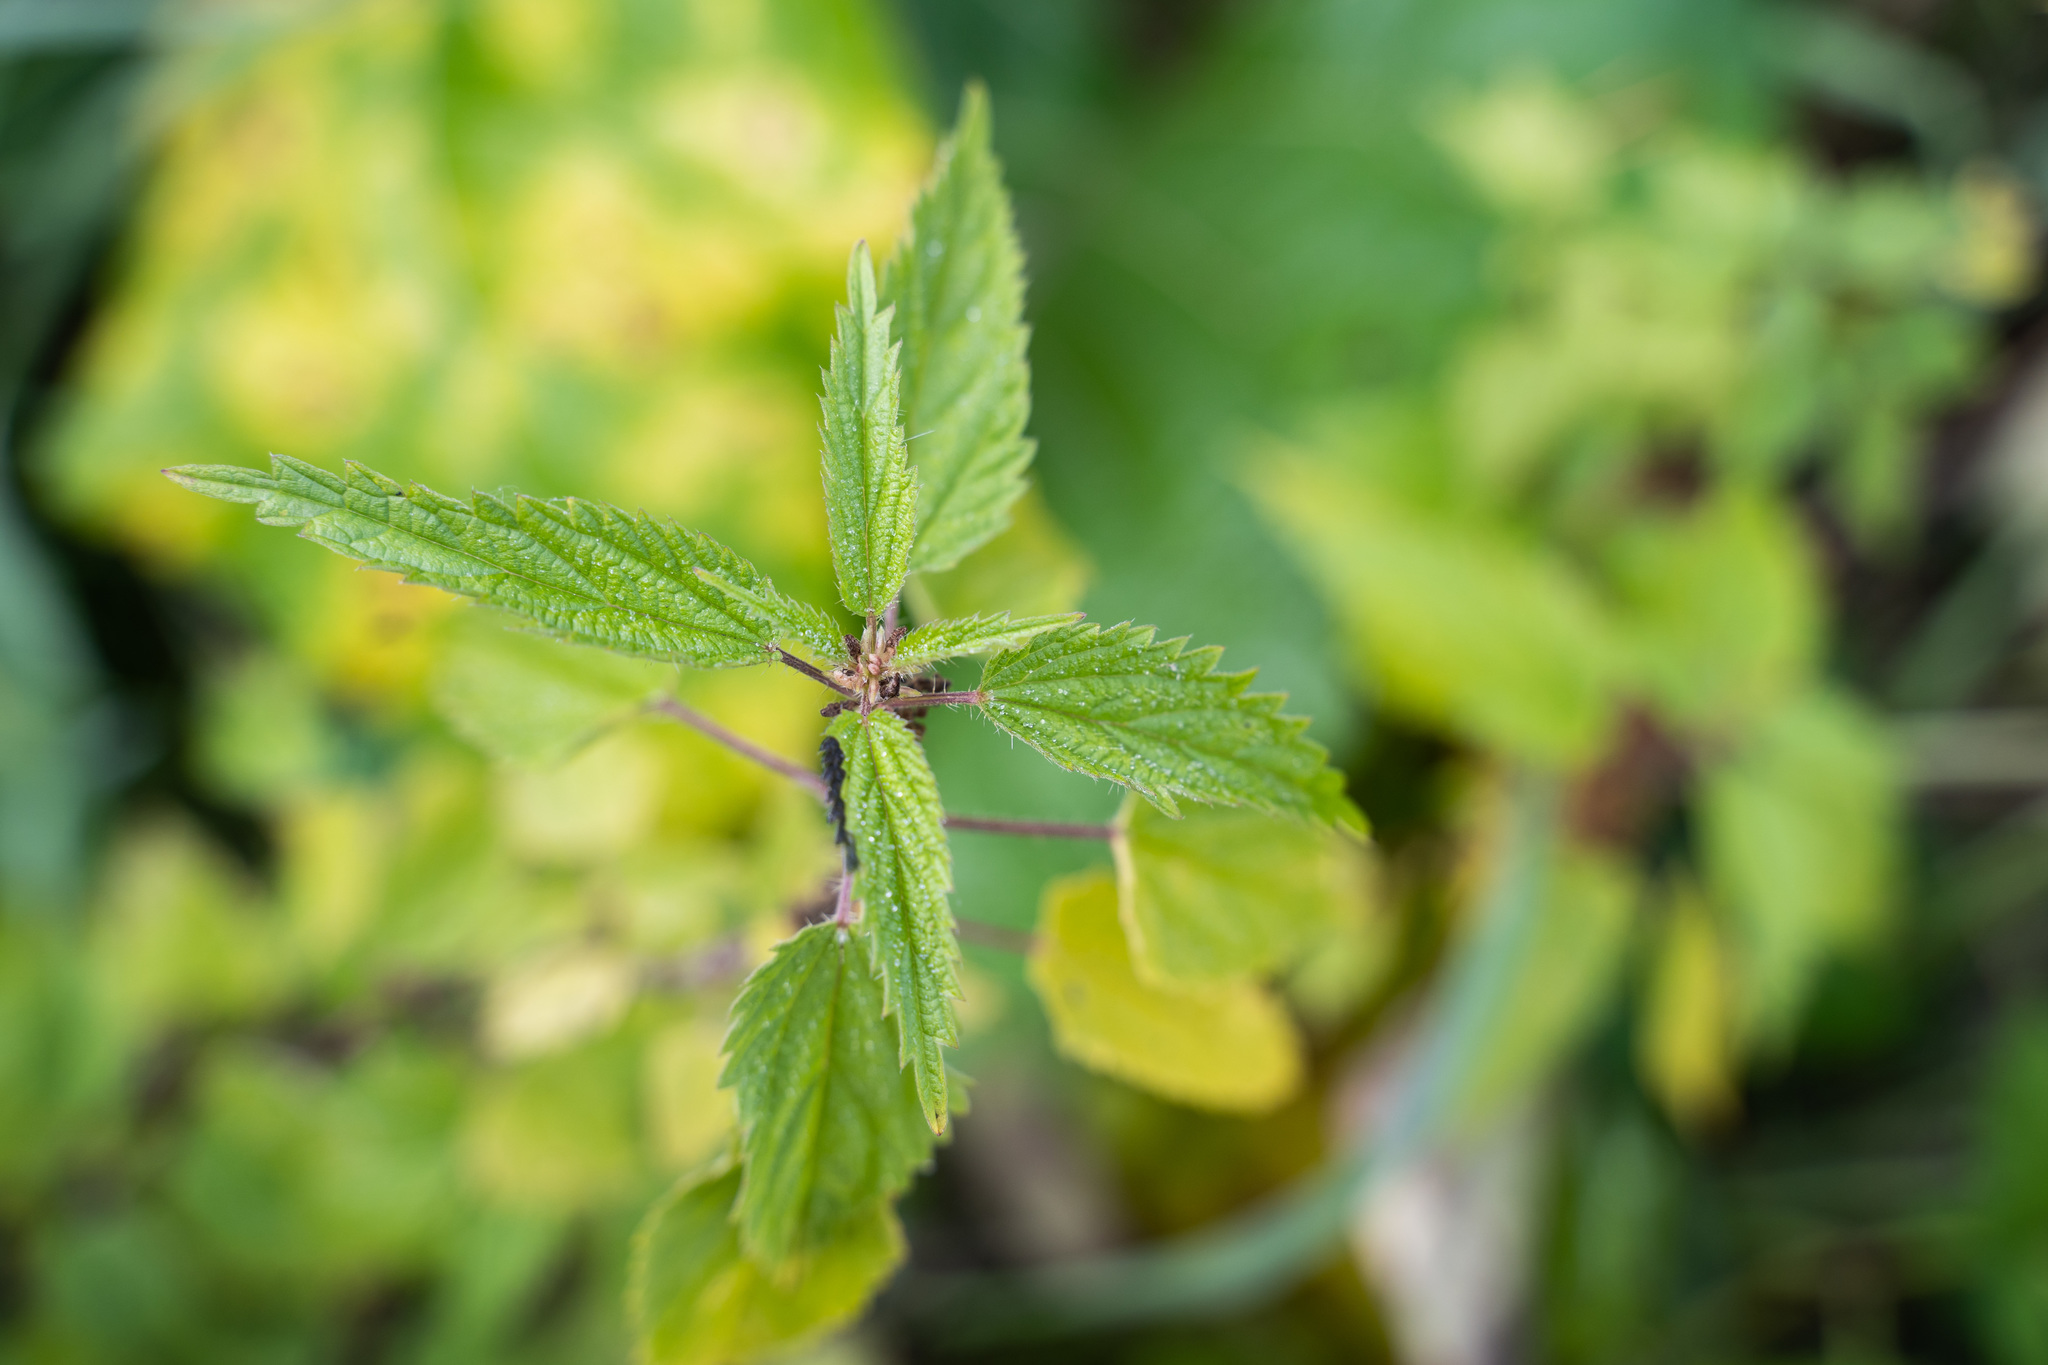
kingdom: Plantae
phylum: Tracheophyta
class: Magnoliopsida
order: Rosales
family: Urticaceae
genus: Urtica
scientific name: Urtica dioica
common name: Common nettle
